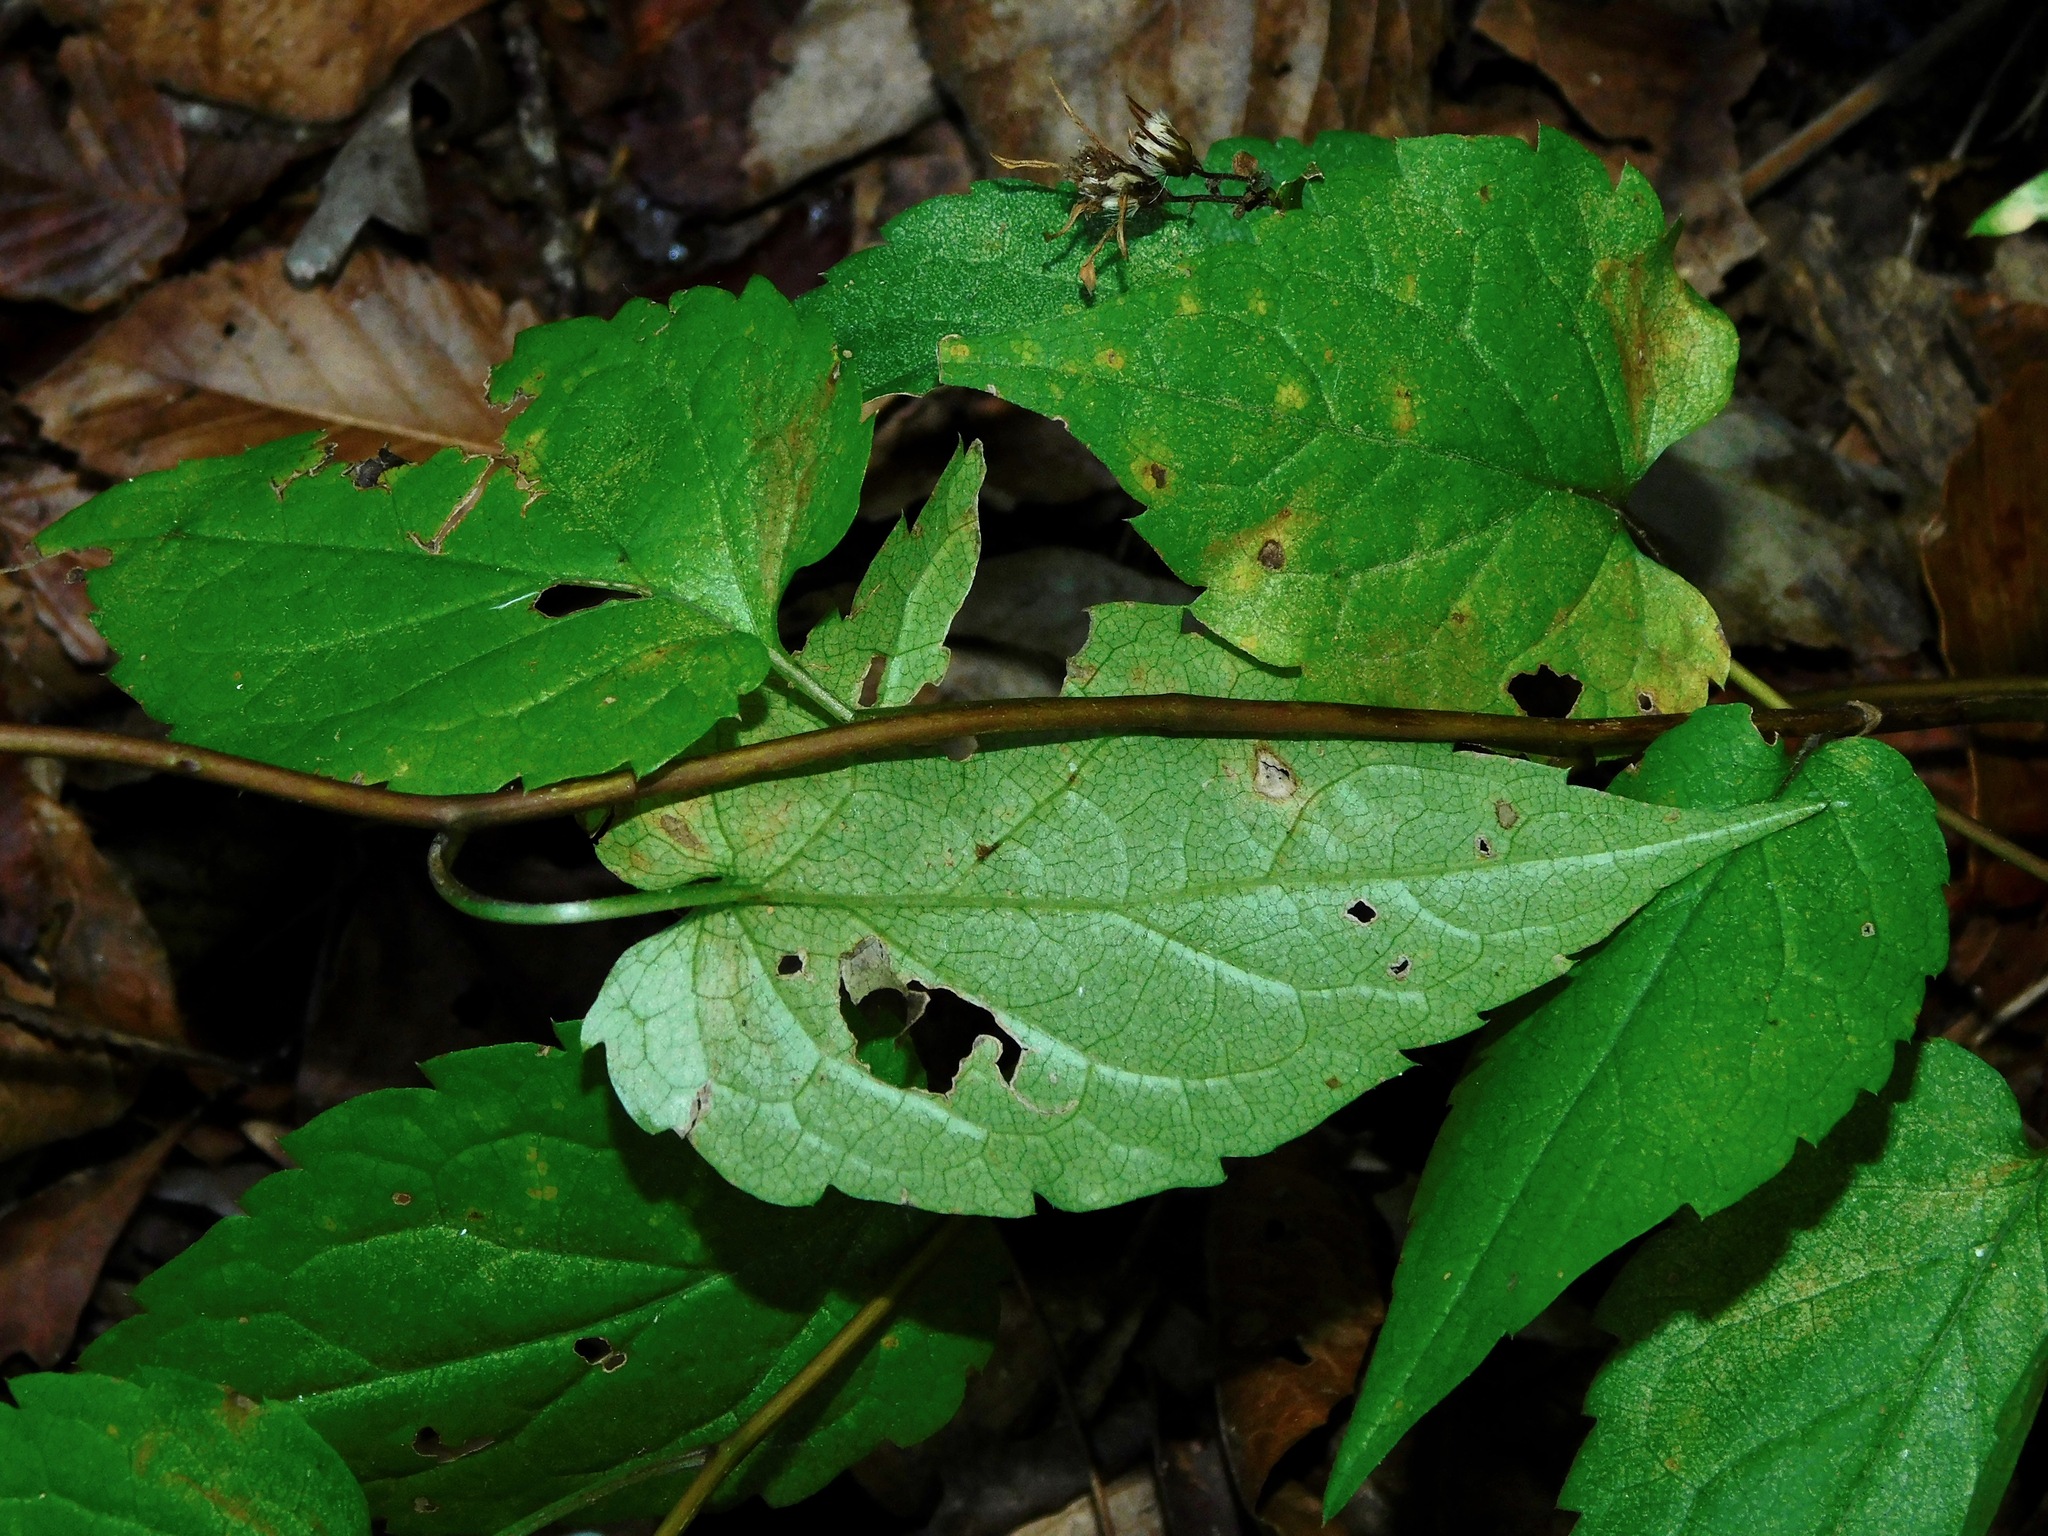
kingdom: Plantae
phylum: Tracheophyta
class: Magnoliopsida
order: Asterales
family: Asteraceae
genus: Symphyotrichum
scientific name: Symphyotrichum cordifolium
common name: Beeweed
